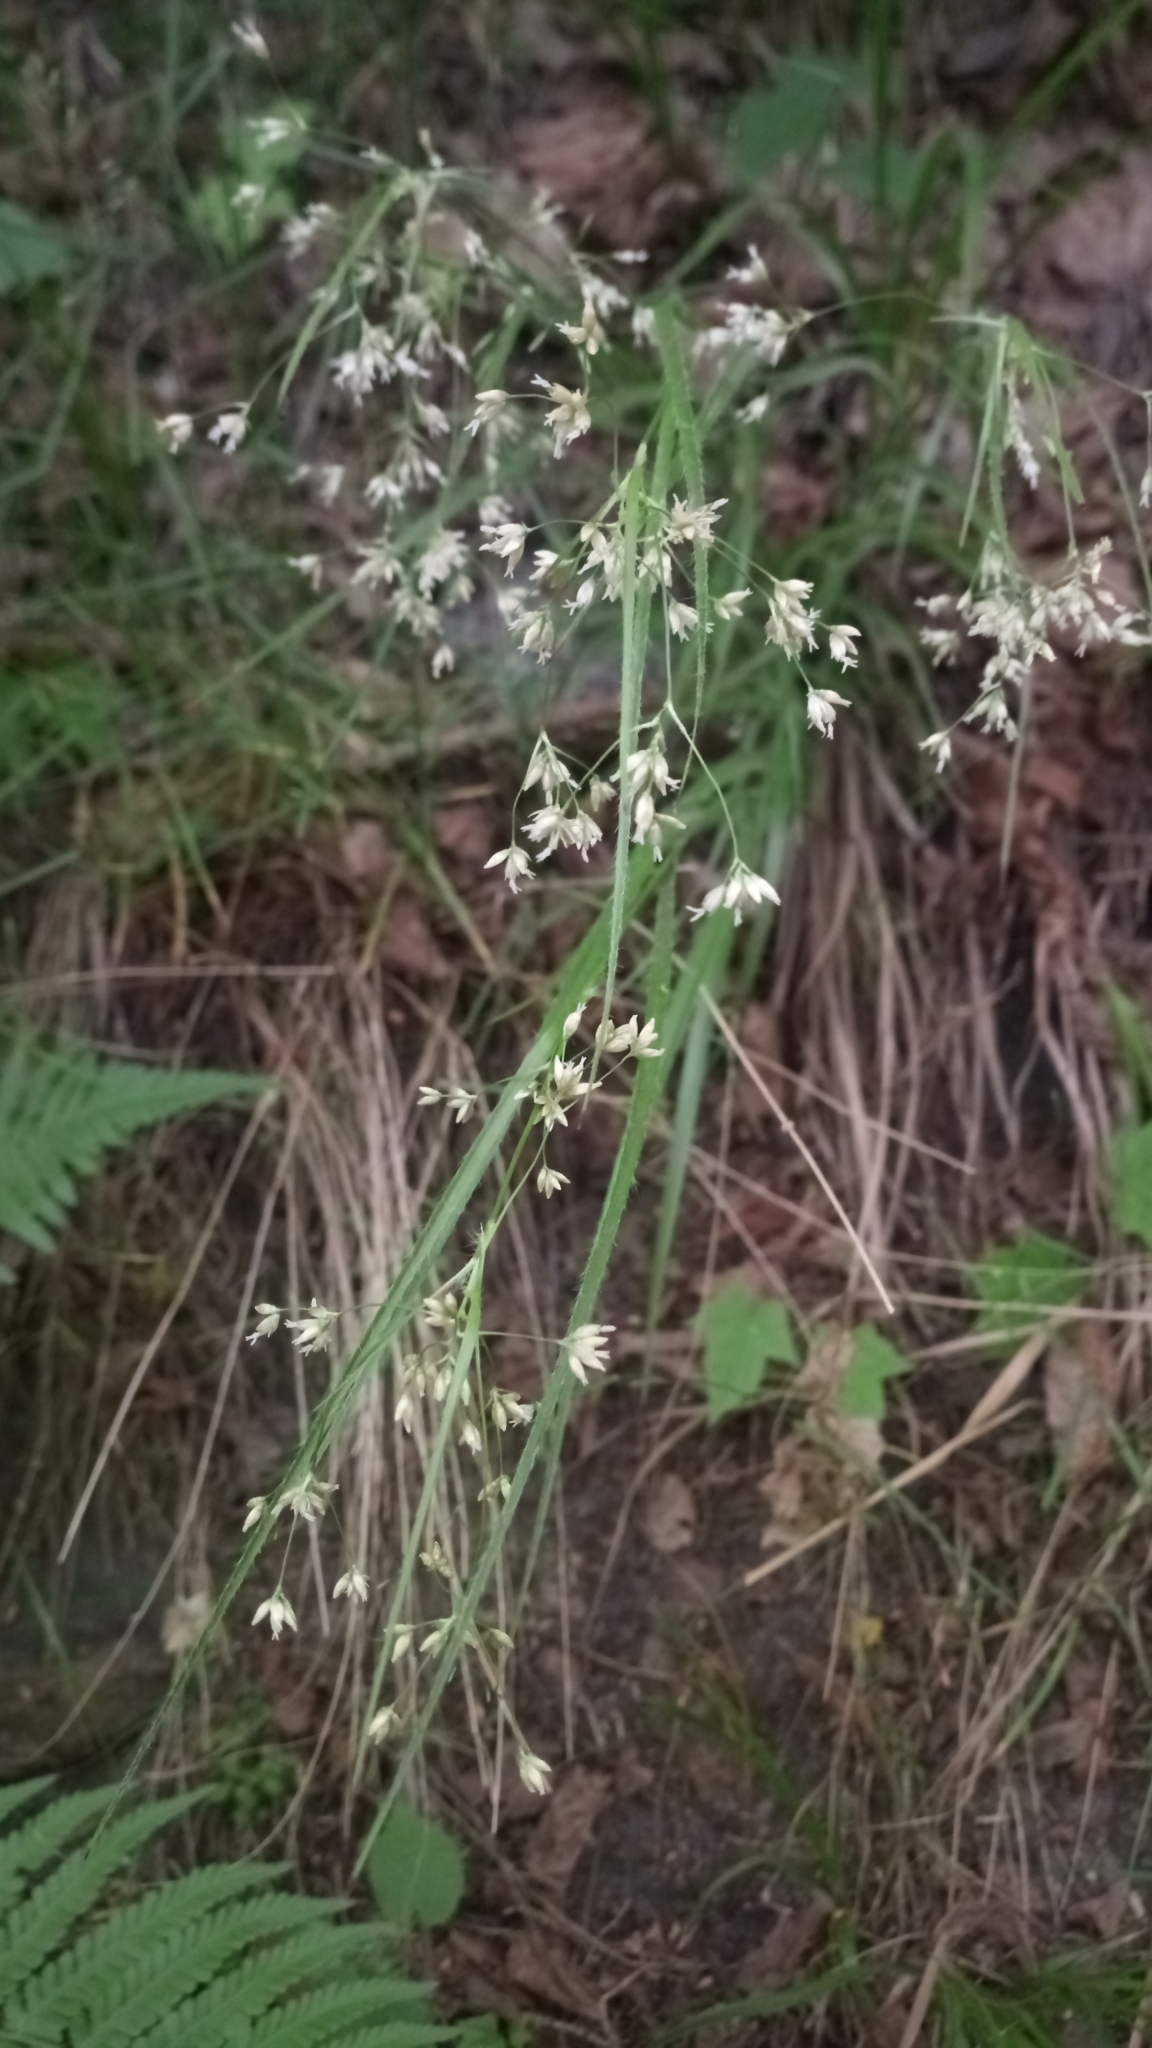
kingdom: Plantae
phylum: Tracheophyta
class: Liliopsida
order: Poales
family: Juncaceae
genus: Luzula
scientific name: Luzula luzuloides
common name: White wood-rush
